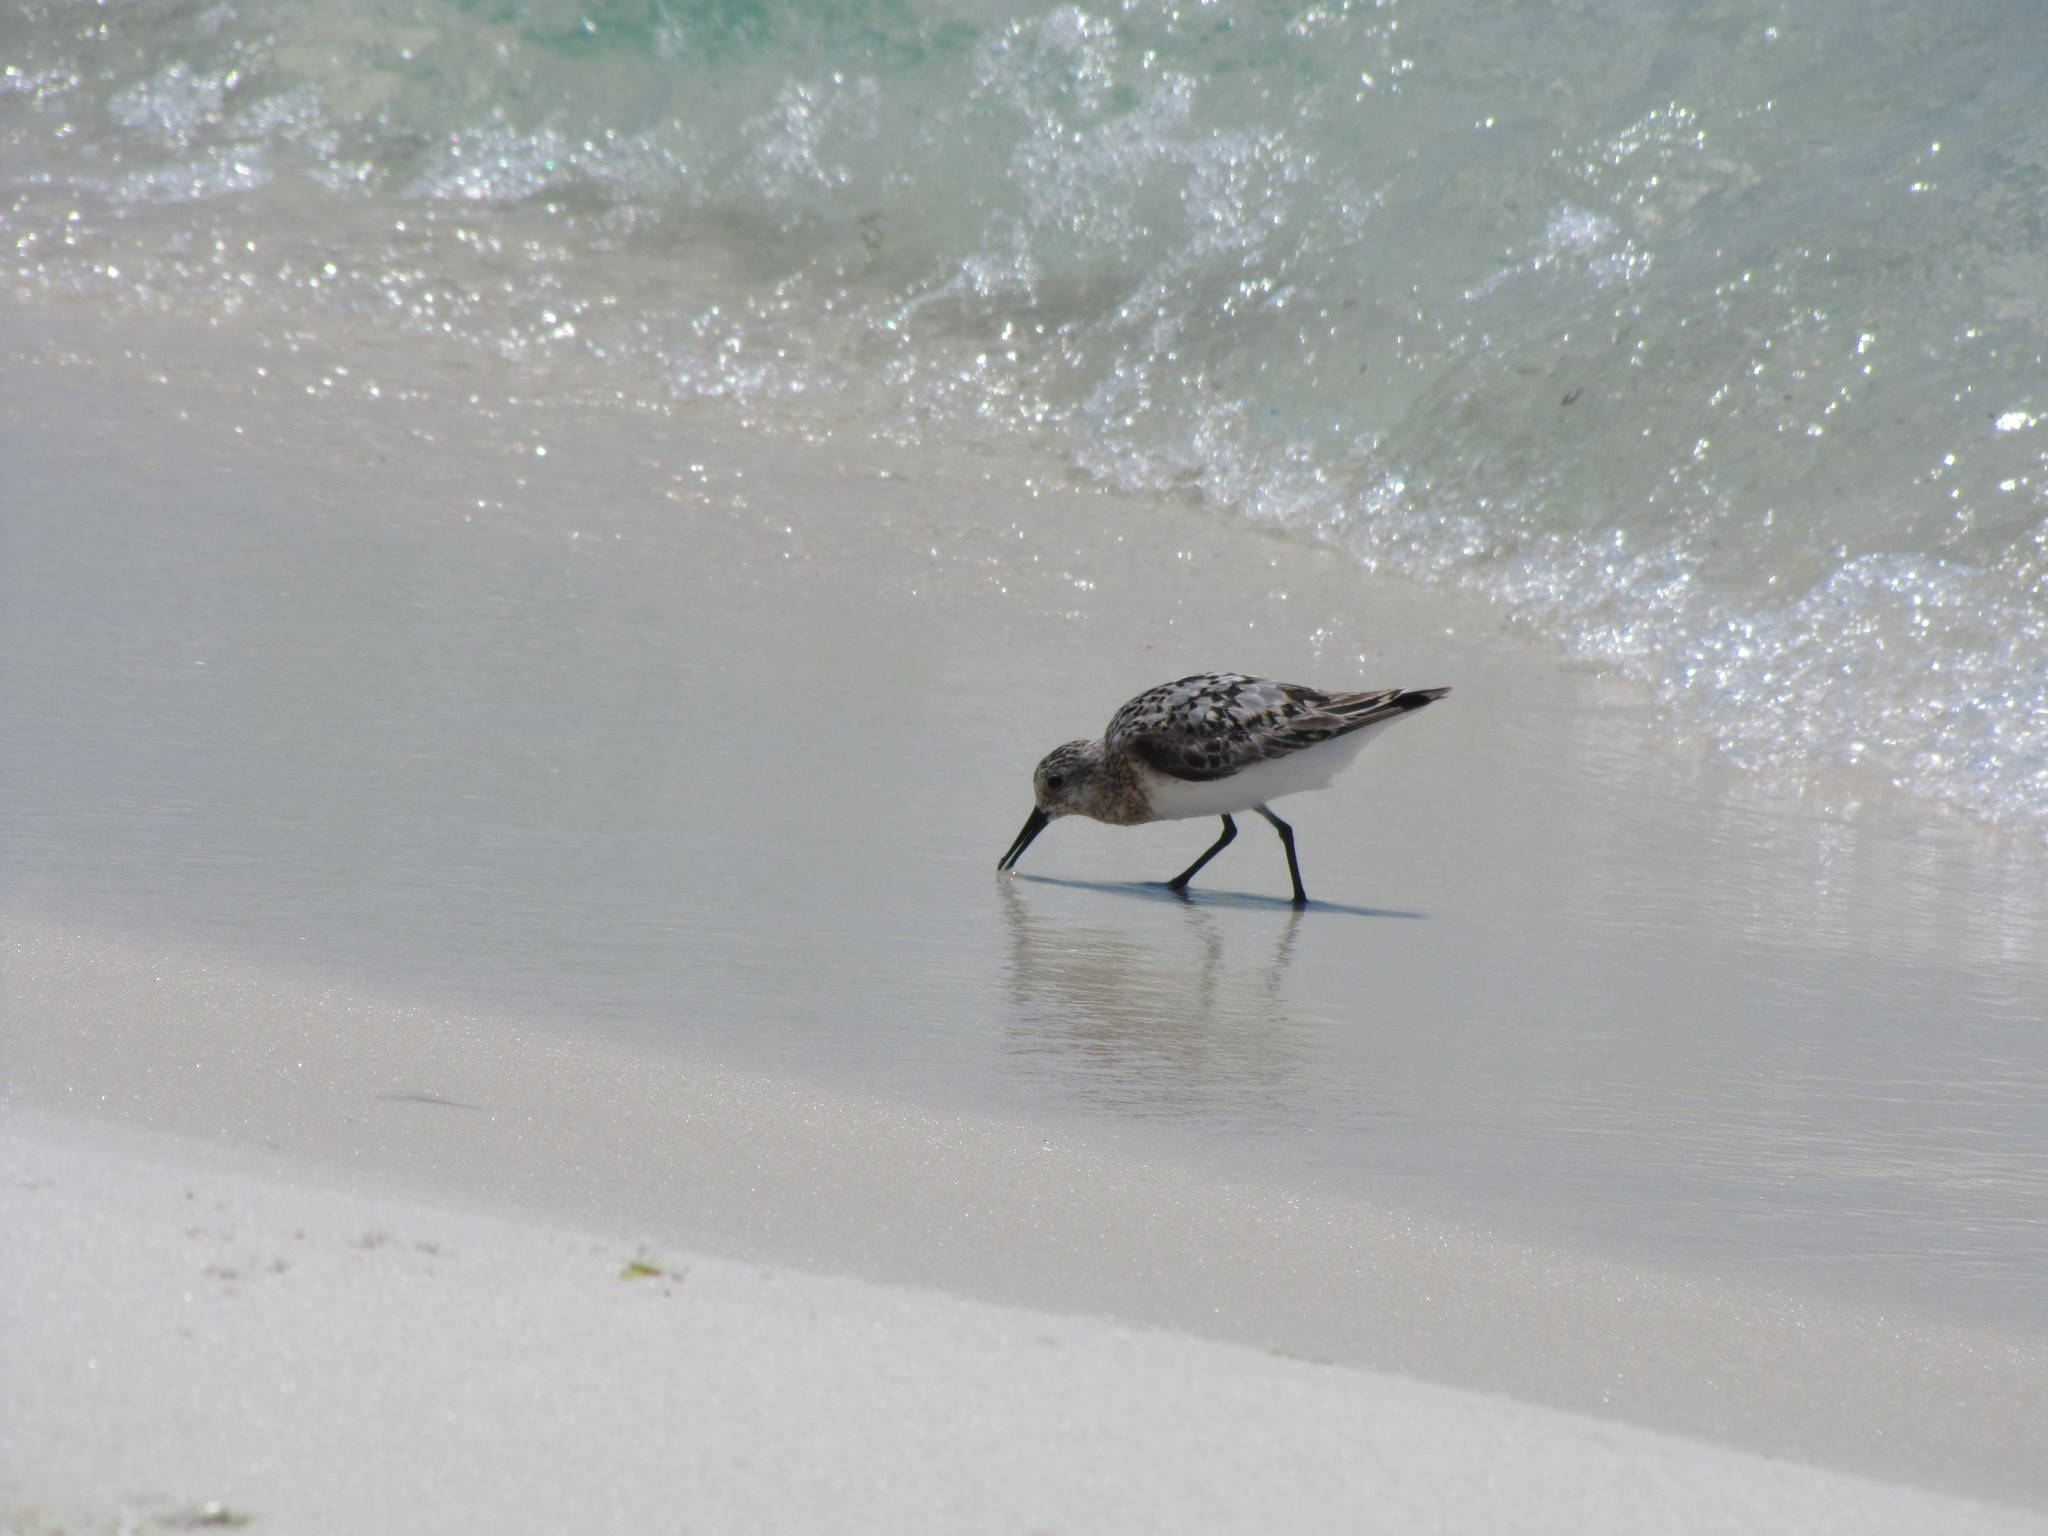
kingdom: Animalia
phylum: Chordata
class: Aves
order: Charadriiformes
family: Scolopacidae
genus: Calidris
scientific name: Calidris alba
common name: Sanderling
